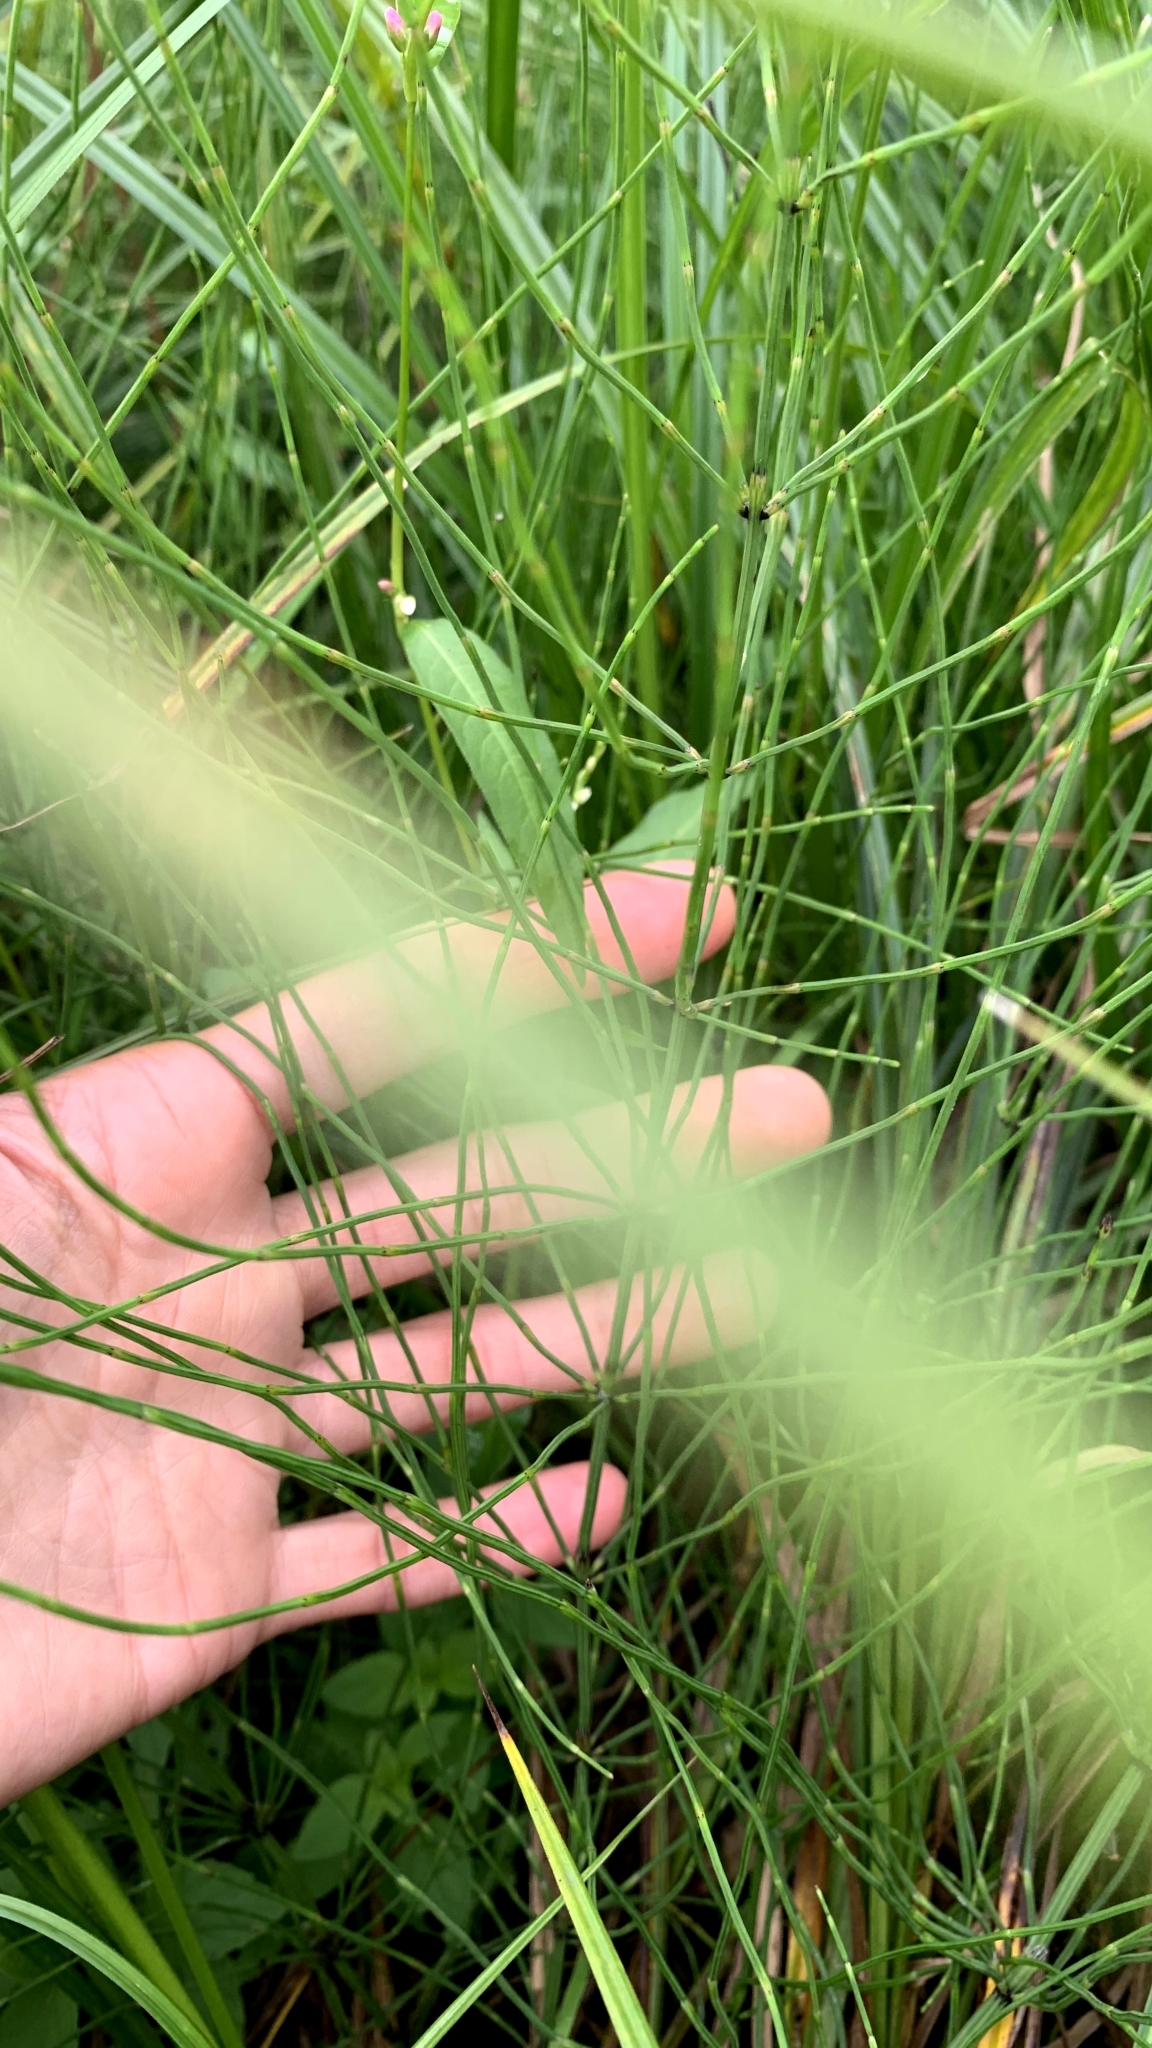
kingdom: Plantae
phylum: Tracheophyta
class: Polypodiopsida
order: Equisetales
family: Equisetaceae
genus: Equisetum
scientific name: Equisetum palustre
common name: Marsh horsetail
